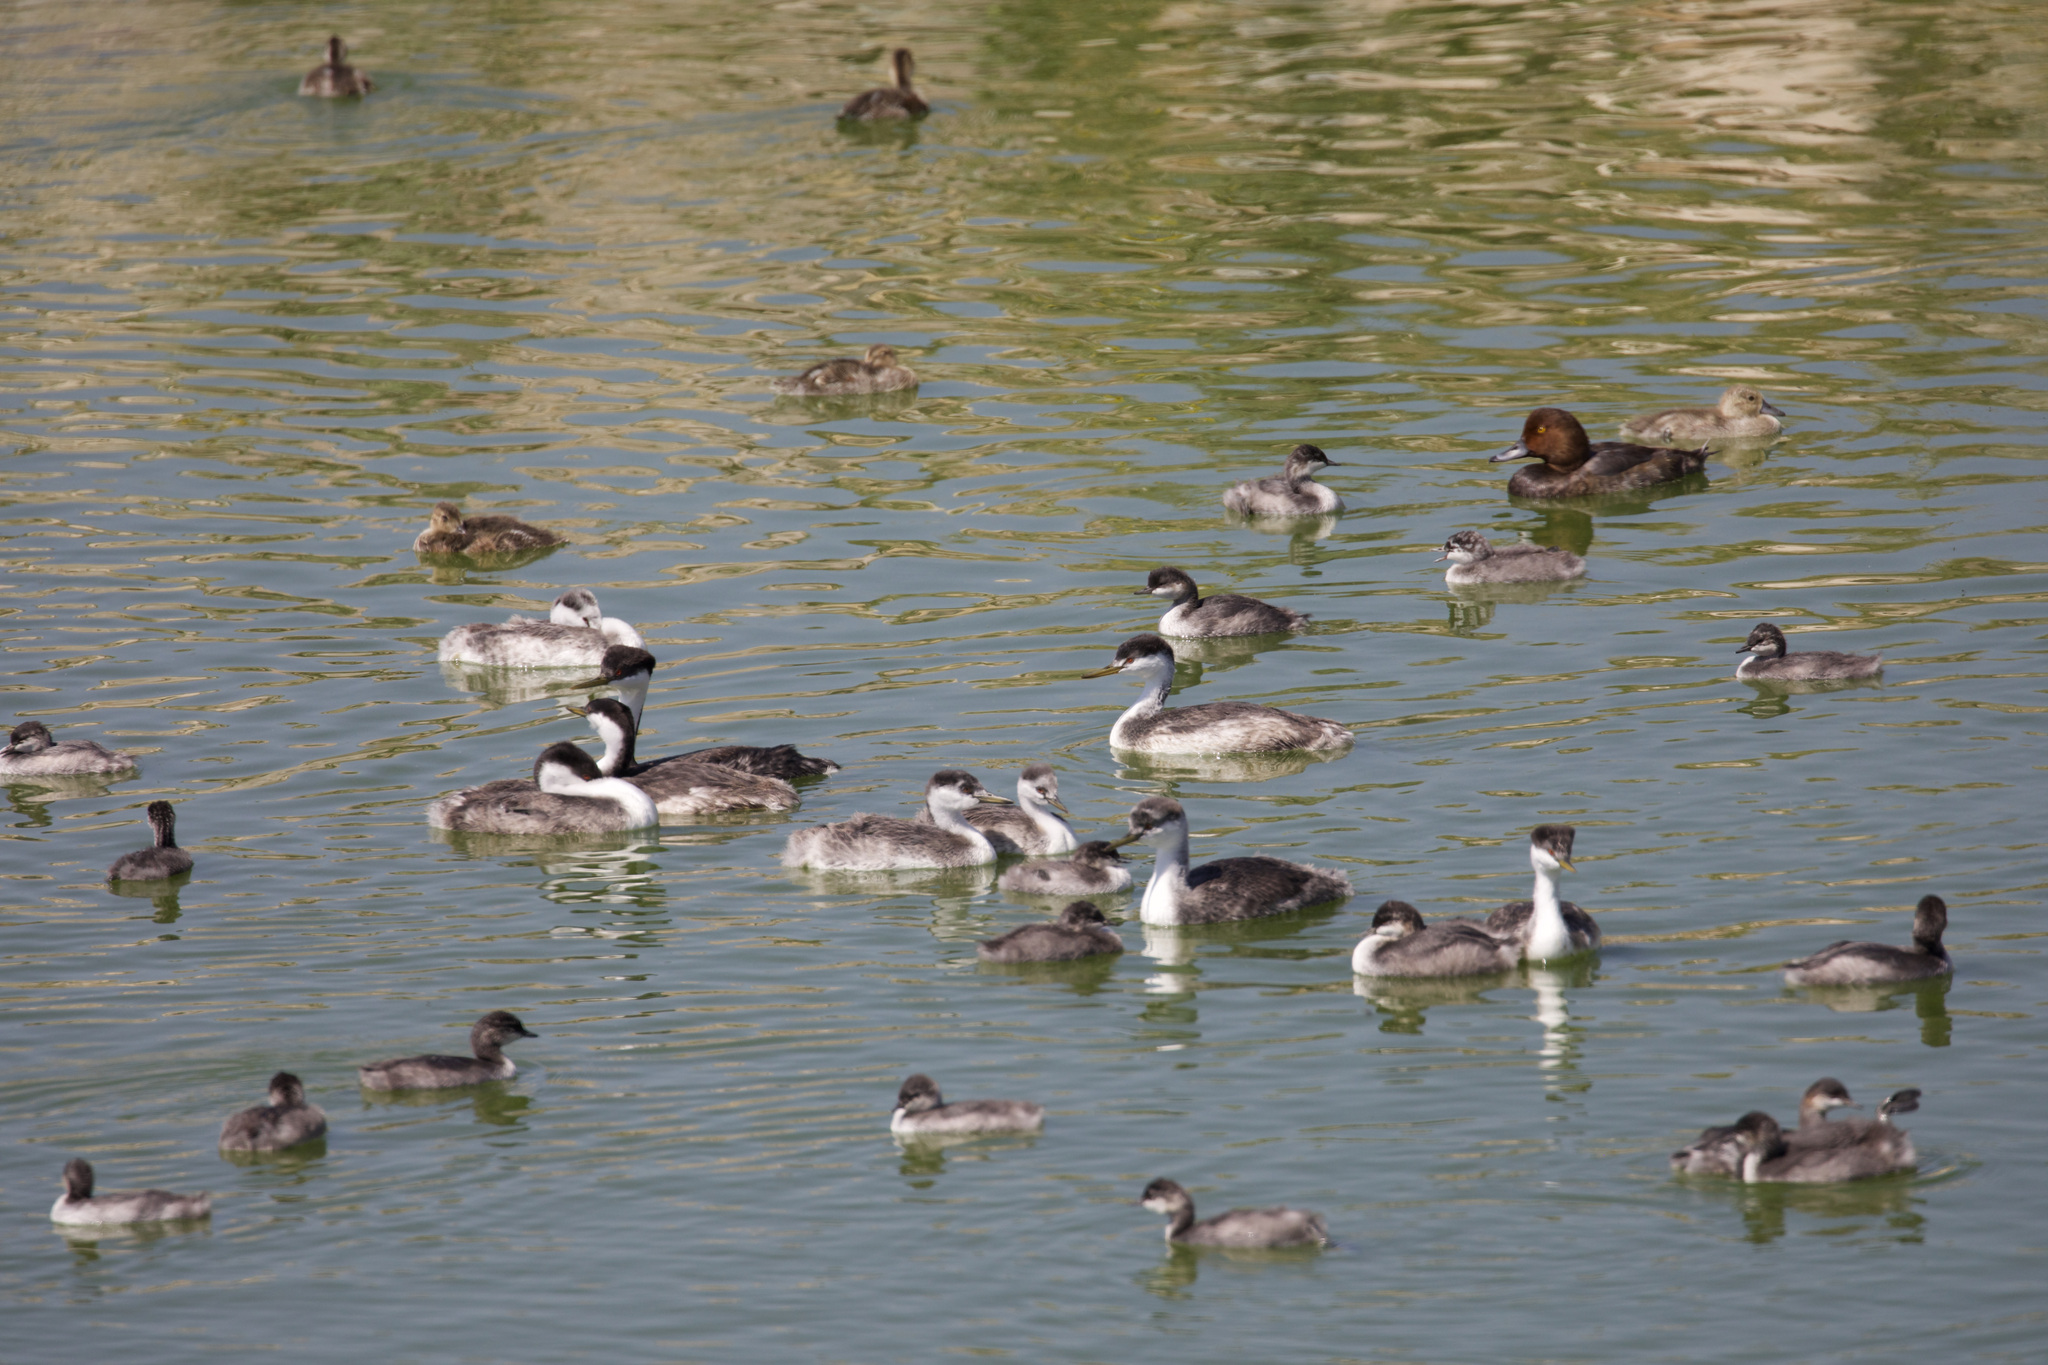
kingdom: Animalia
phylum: Chordata
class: Aves
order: Podicipediformes
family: Podicipedidae
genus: Aechmophorus
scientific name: Aechmophorus occidentalis
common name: Western grebe
